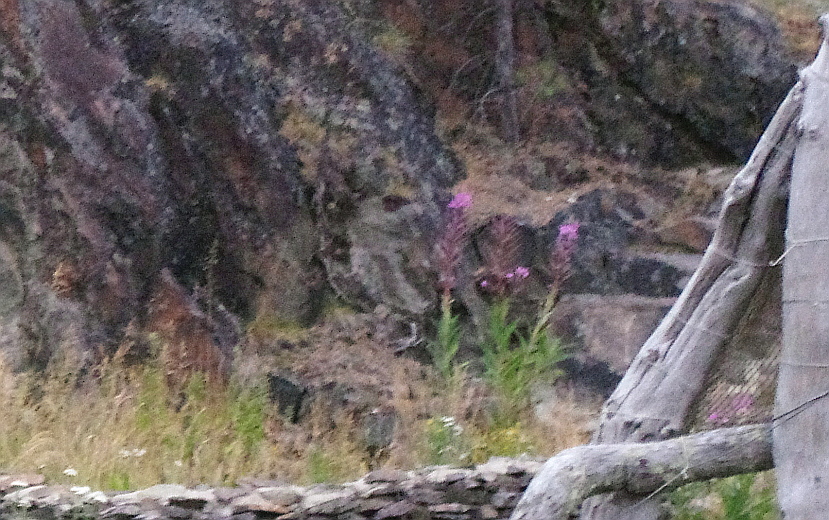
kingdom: Plantae
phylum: Tracheophyta
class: Magnoliopsida
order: Myrtales
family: Onagraceae
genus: Chamaenerion
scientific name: Chamaenerion angustifolium
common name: Fireweed
